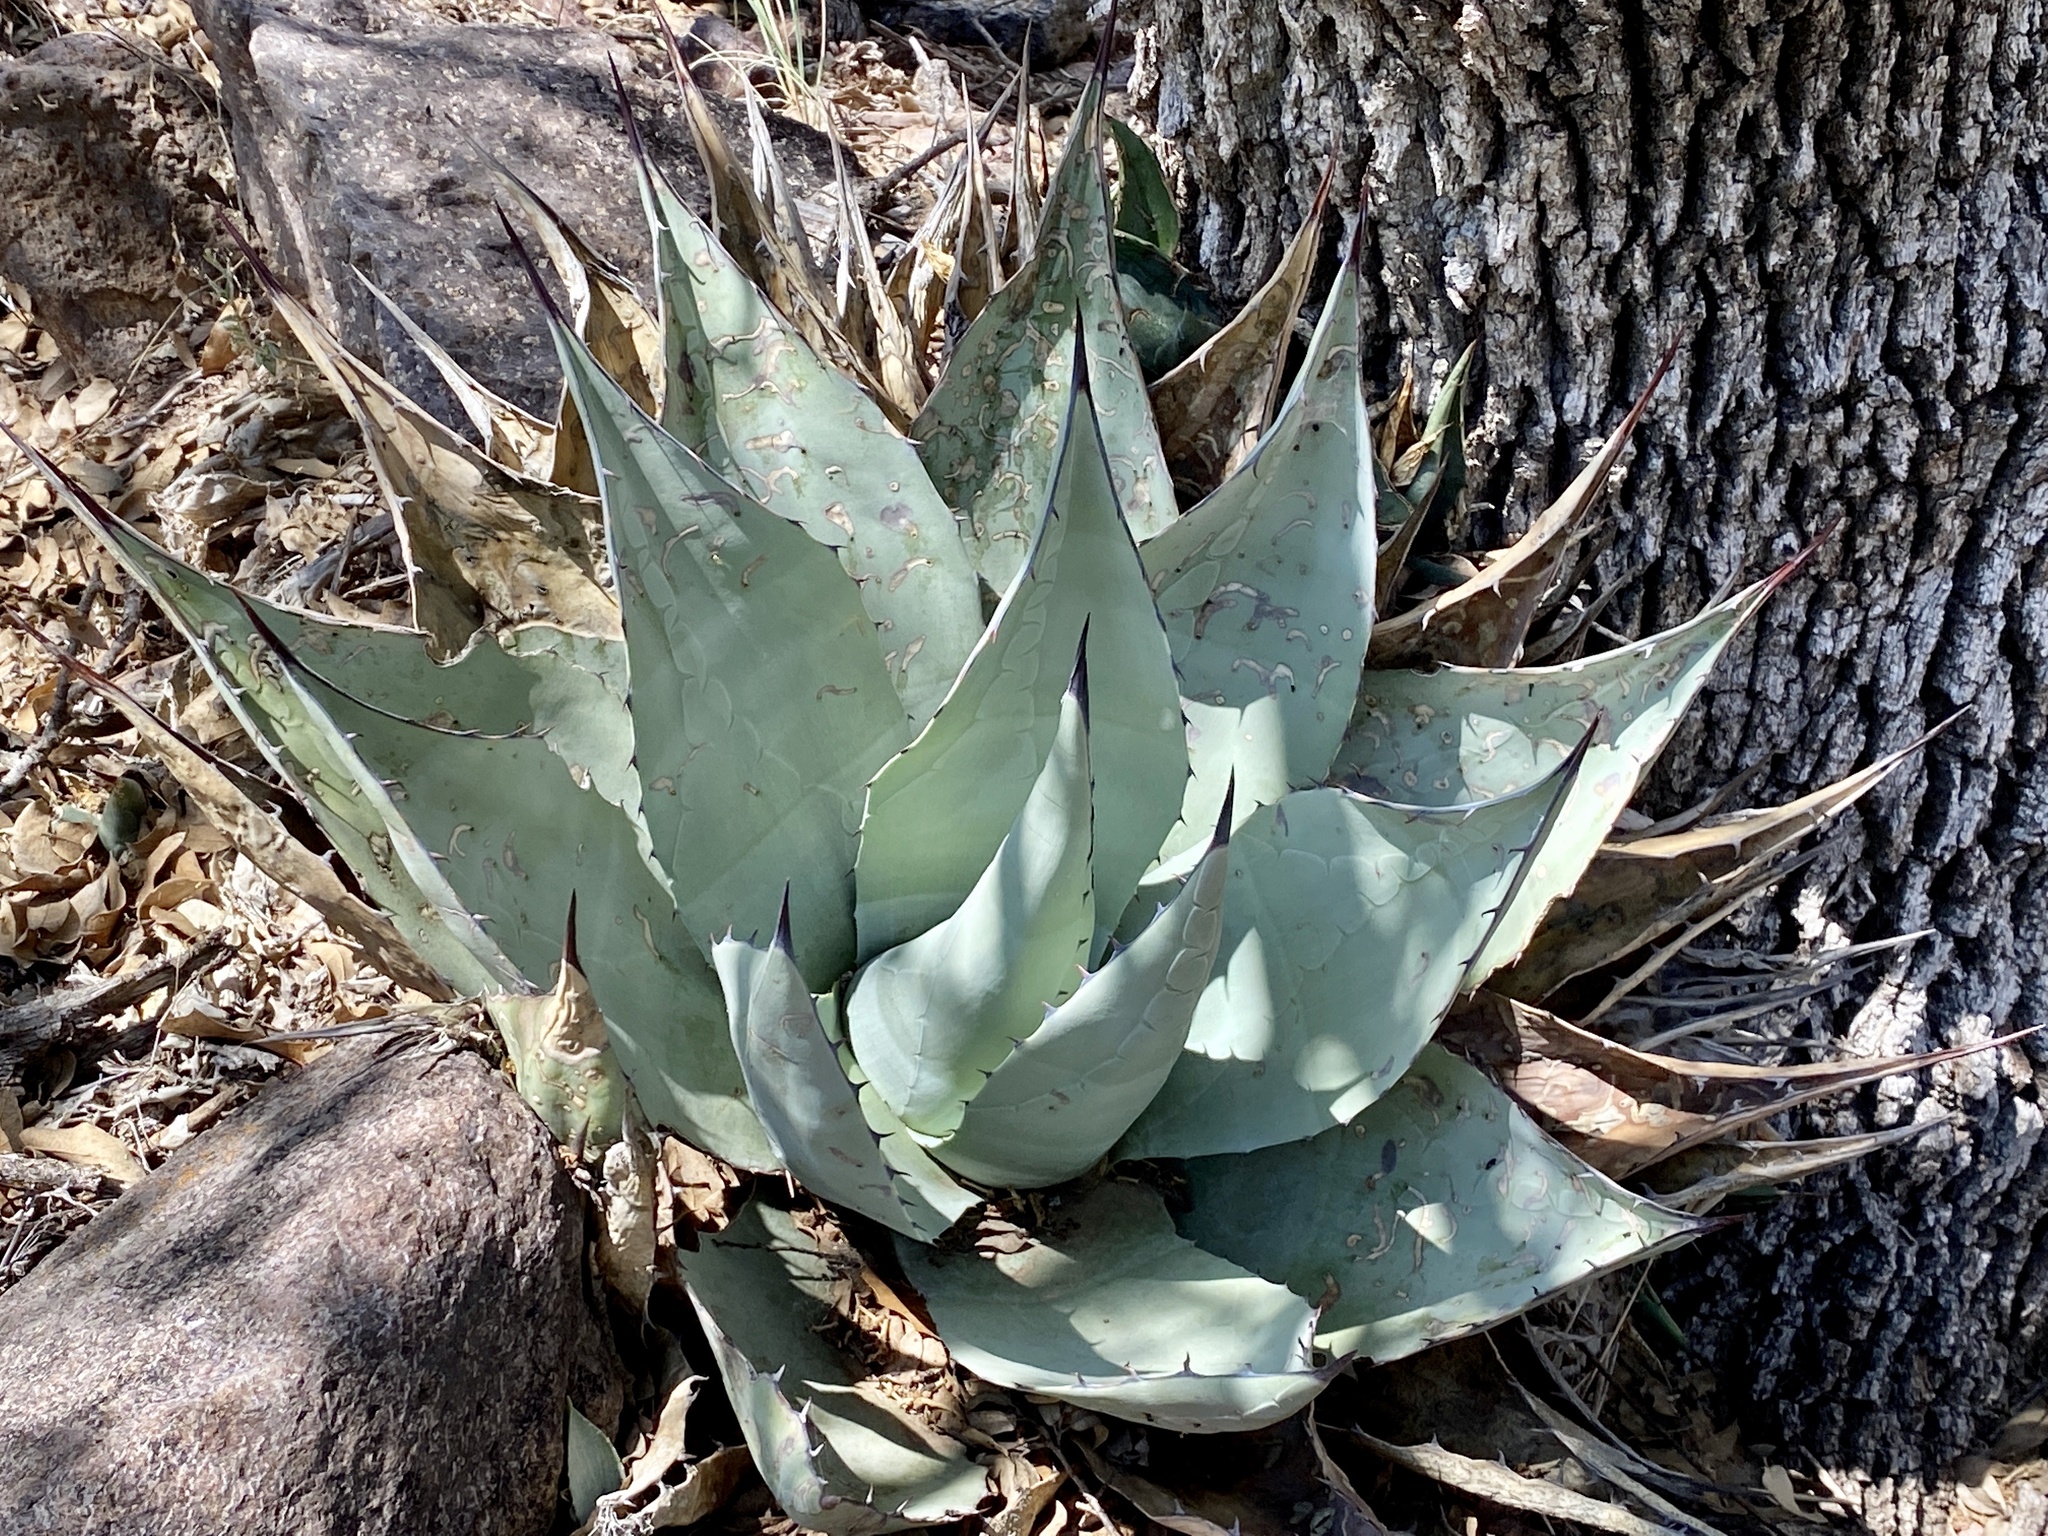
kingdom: Plantae
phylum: Tracheophyta
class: Liliopsida
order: Asparagales
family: Asparagaceae
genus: Agave
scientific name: Agave havardiana
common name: Havard agave
